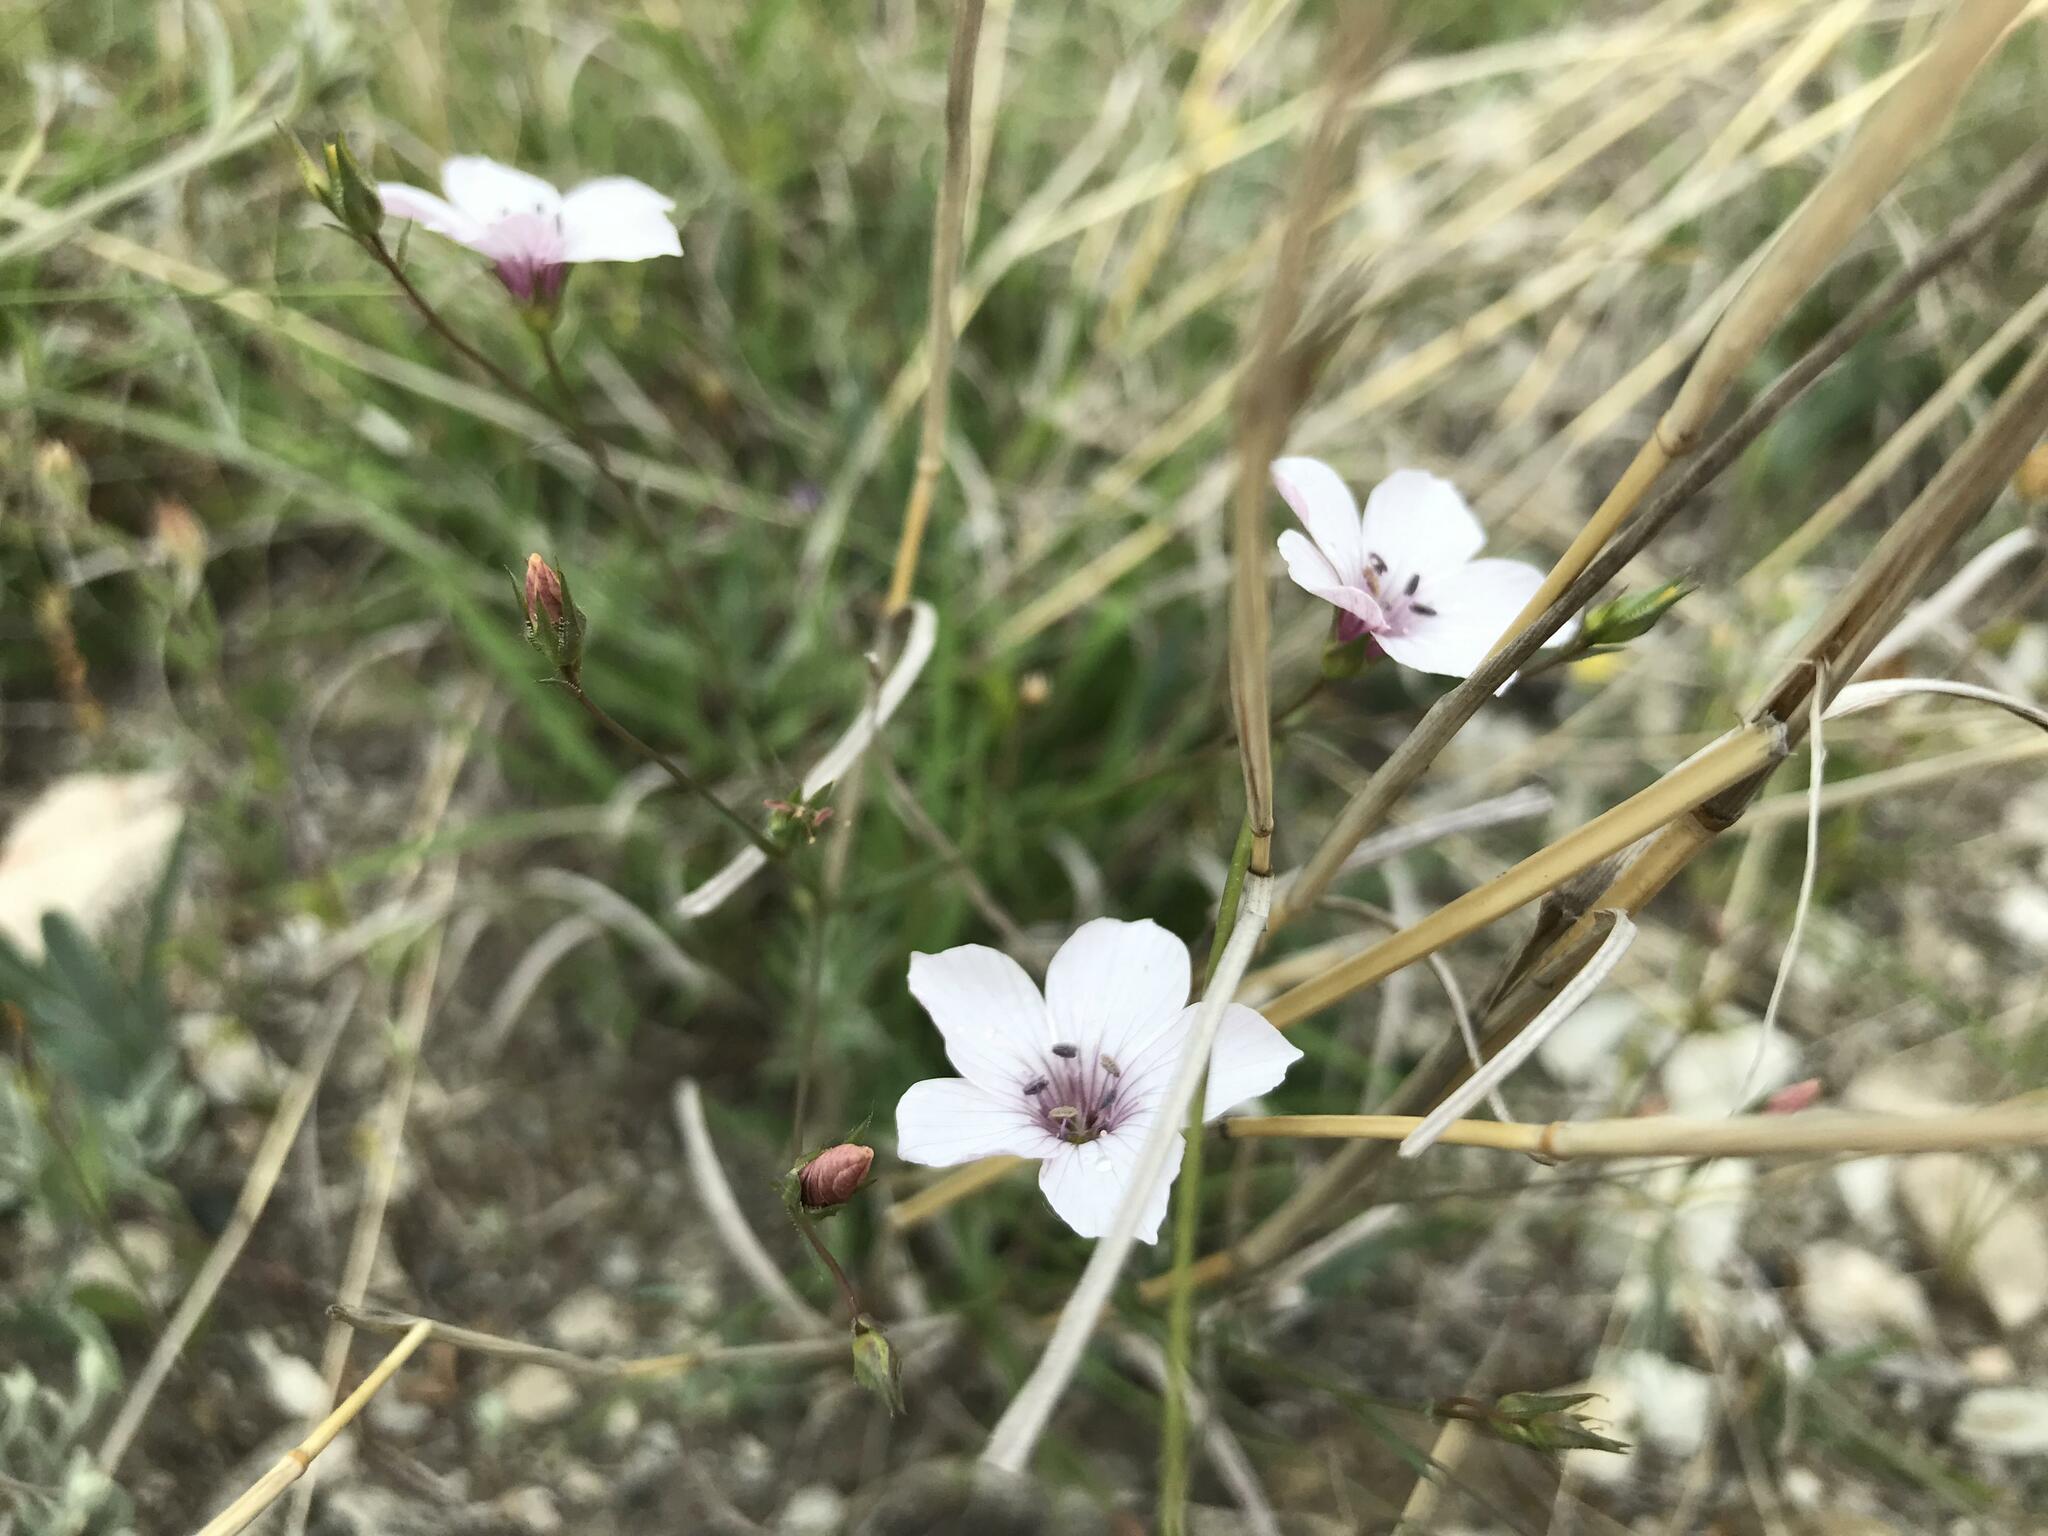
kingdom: Plantae
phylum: Tracheophyta
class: Magnoliopsida
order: Malpighiales
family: Linaceae
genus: Linum
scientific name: Linum tenuifolium
